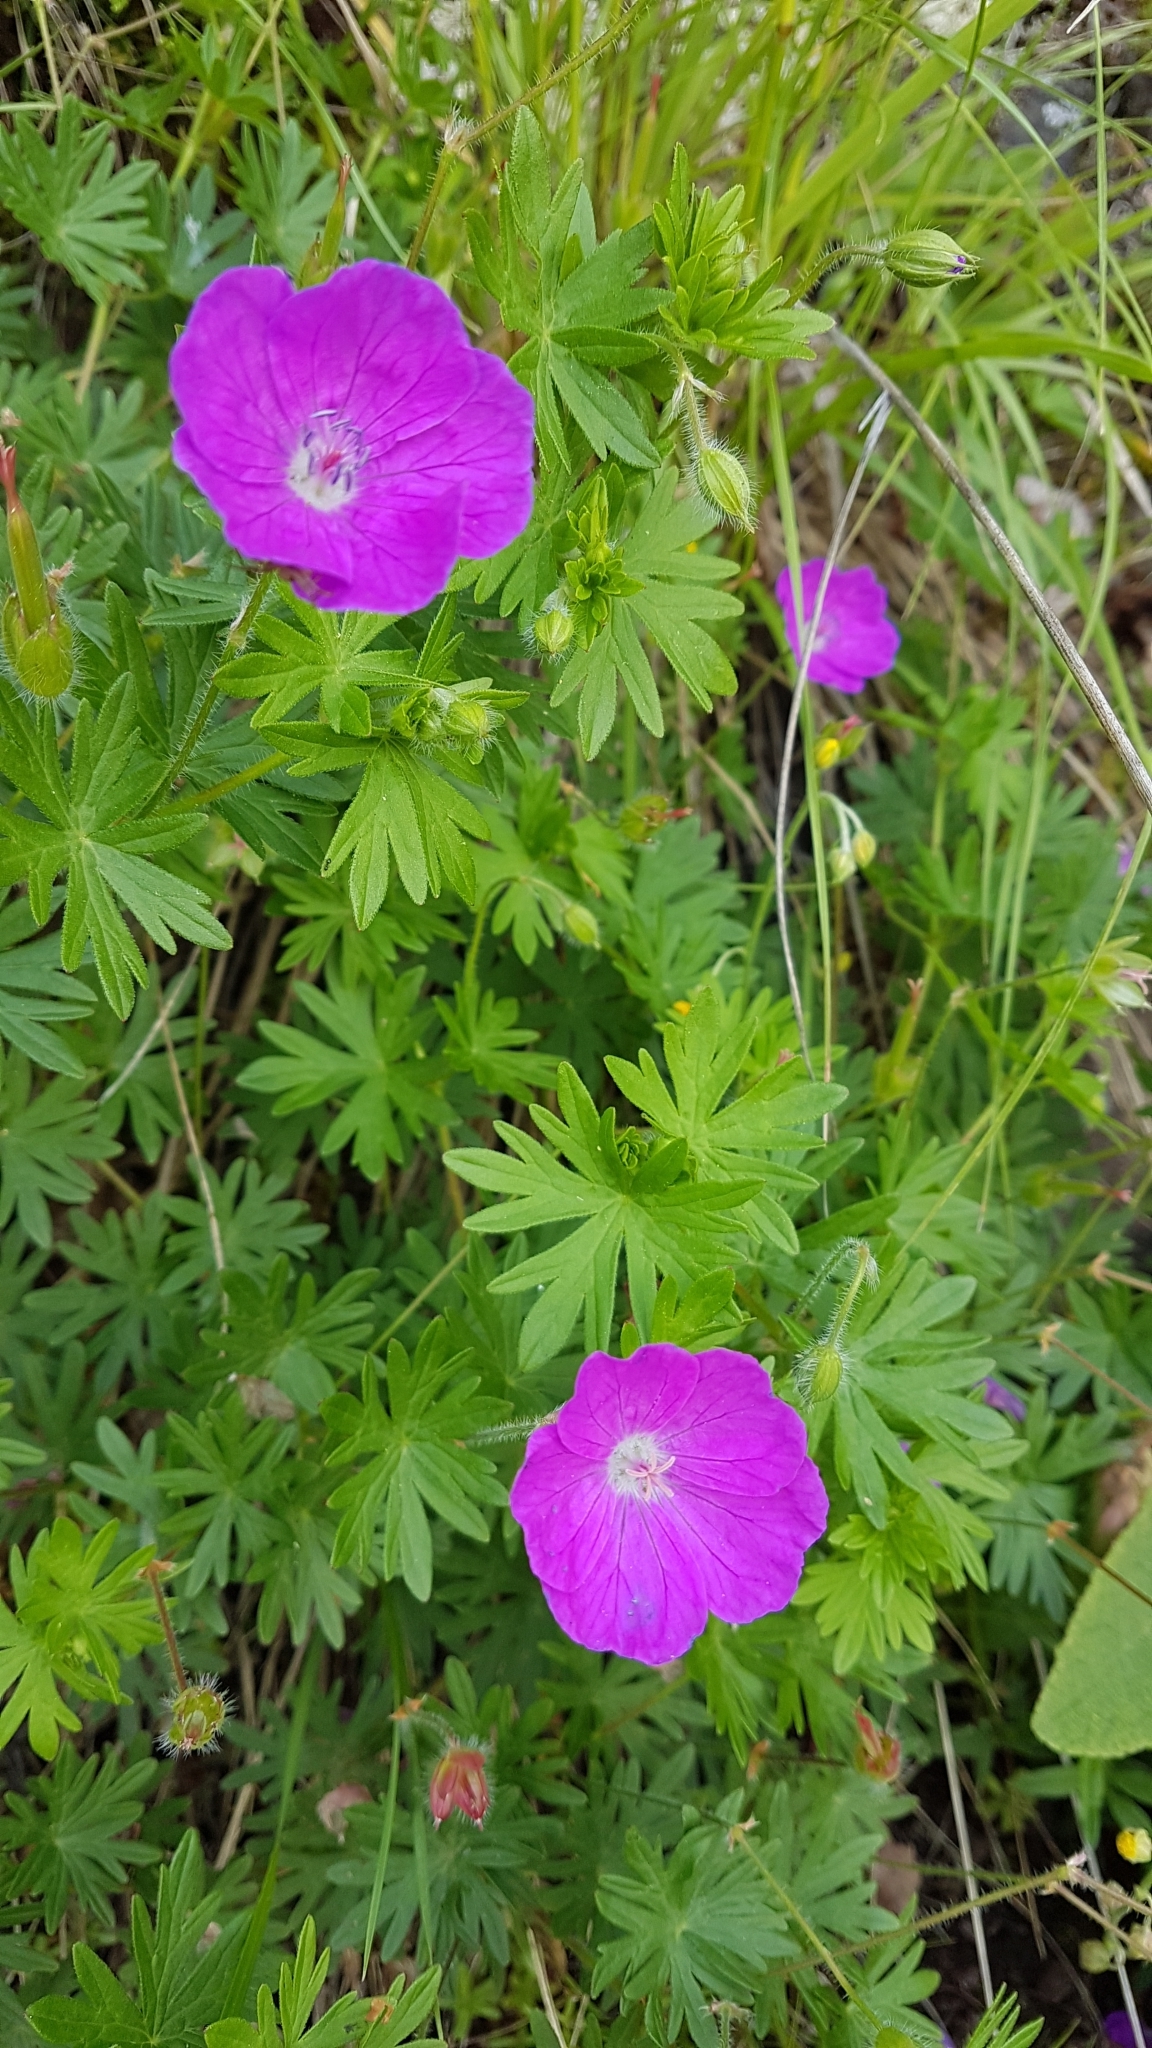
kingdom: Plantae
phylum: Tracheophyta
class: Magnoliopsida
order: Geraniales
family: Geraniaceae
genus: Geranium
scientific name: Geranium sanguineum
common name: Bloody crane's-bill
